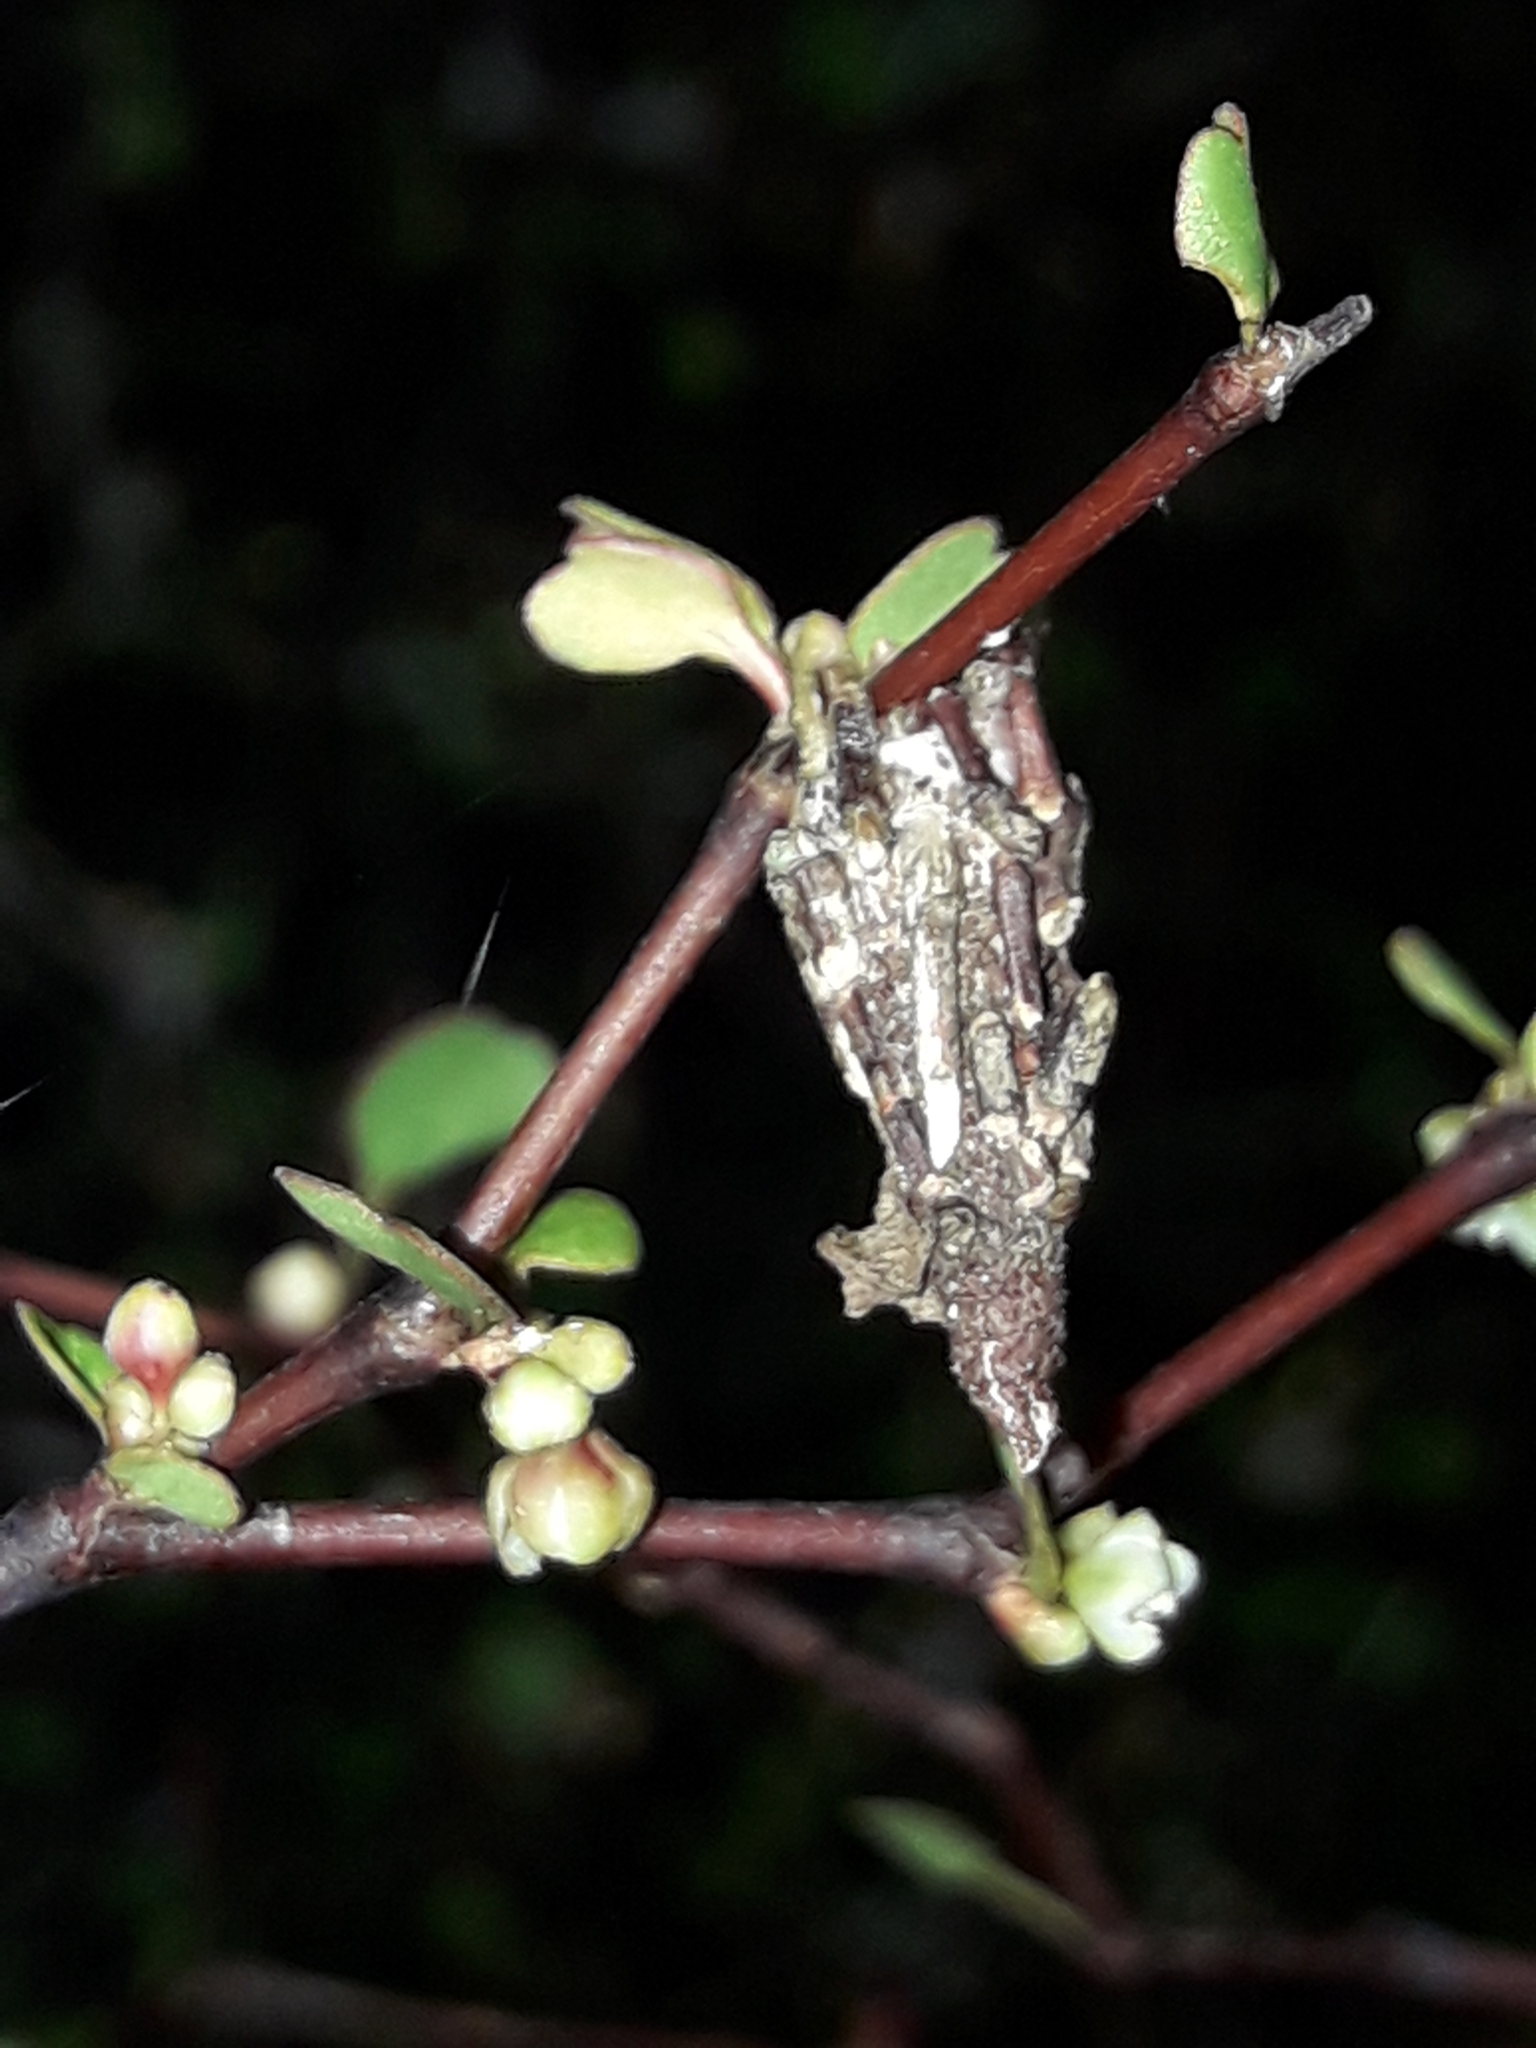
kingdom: Animalia
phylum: Arthropoda
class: Insecta
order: Lepidoptera
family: Psychidae
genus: Liothula
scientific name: Liothula omnivora
